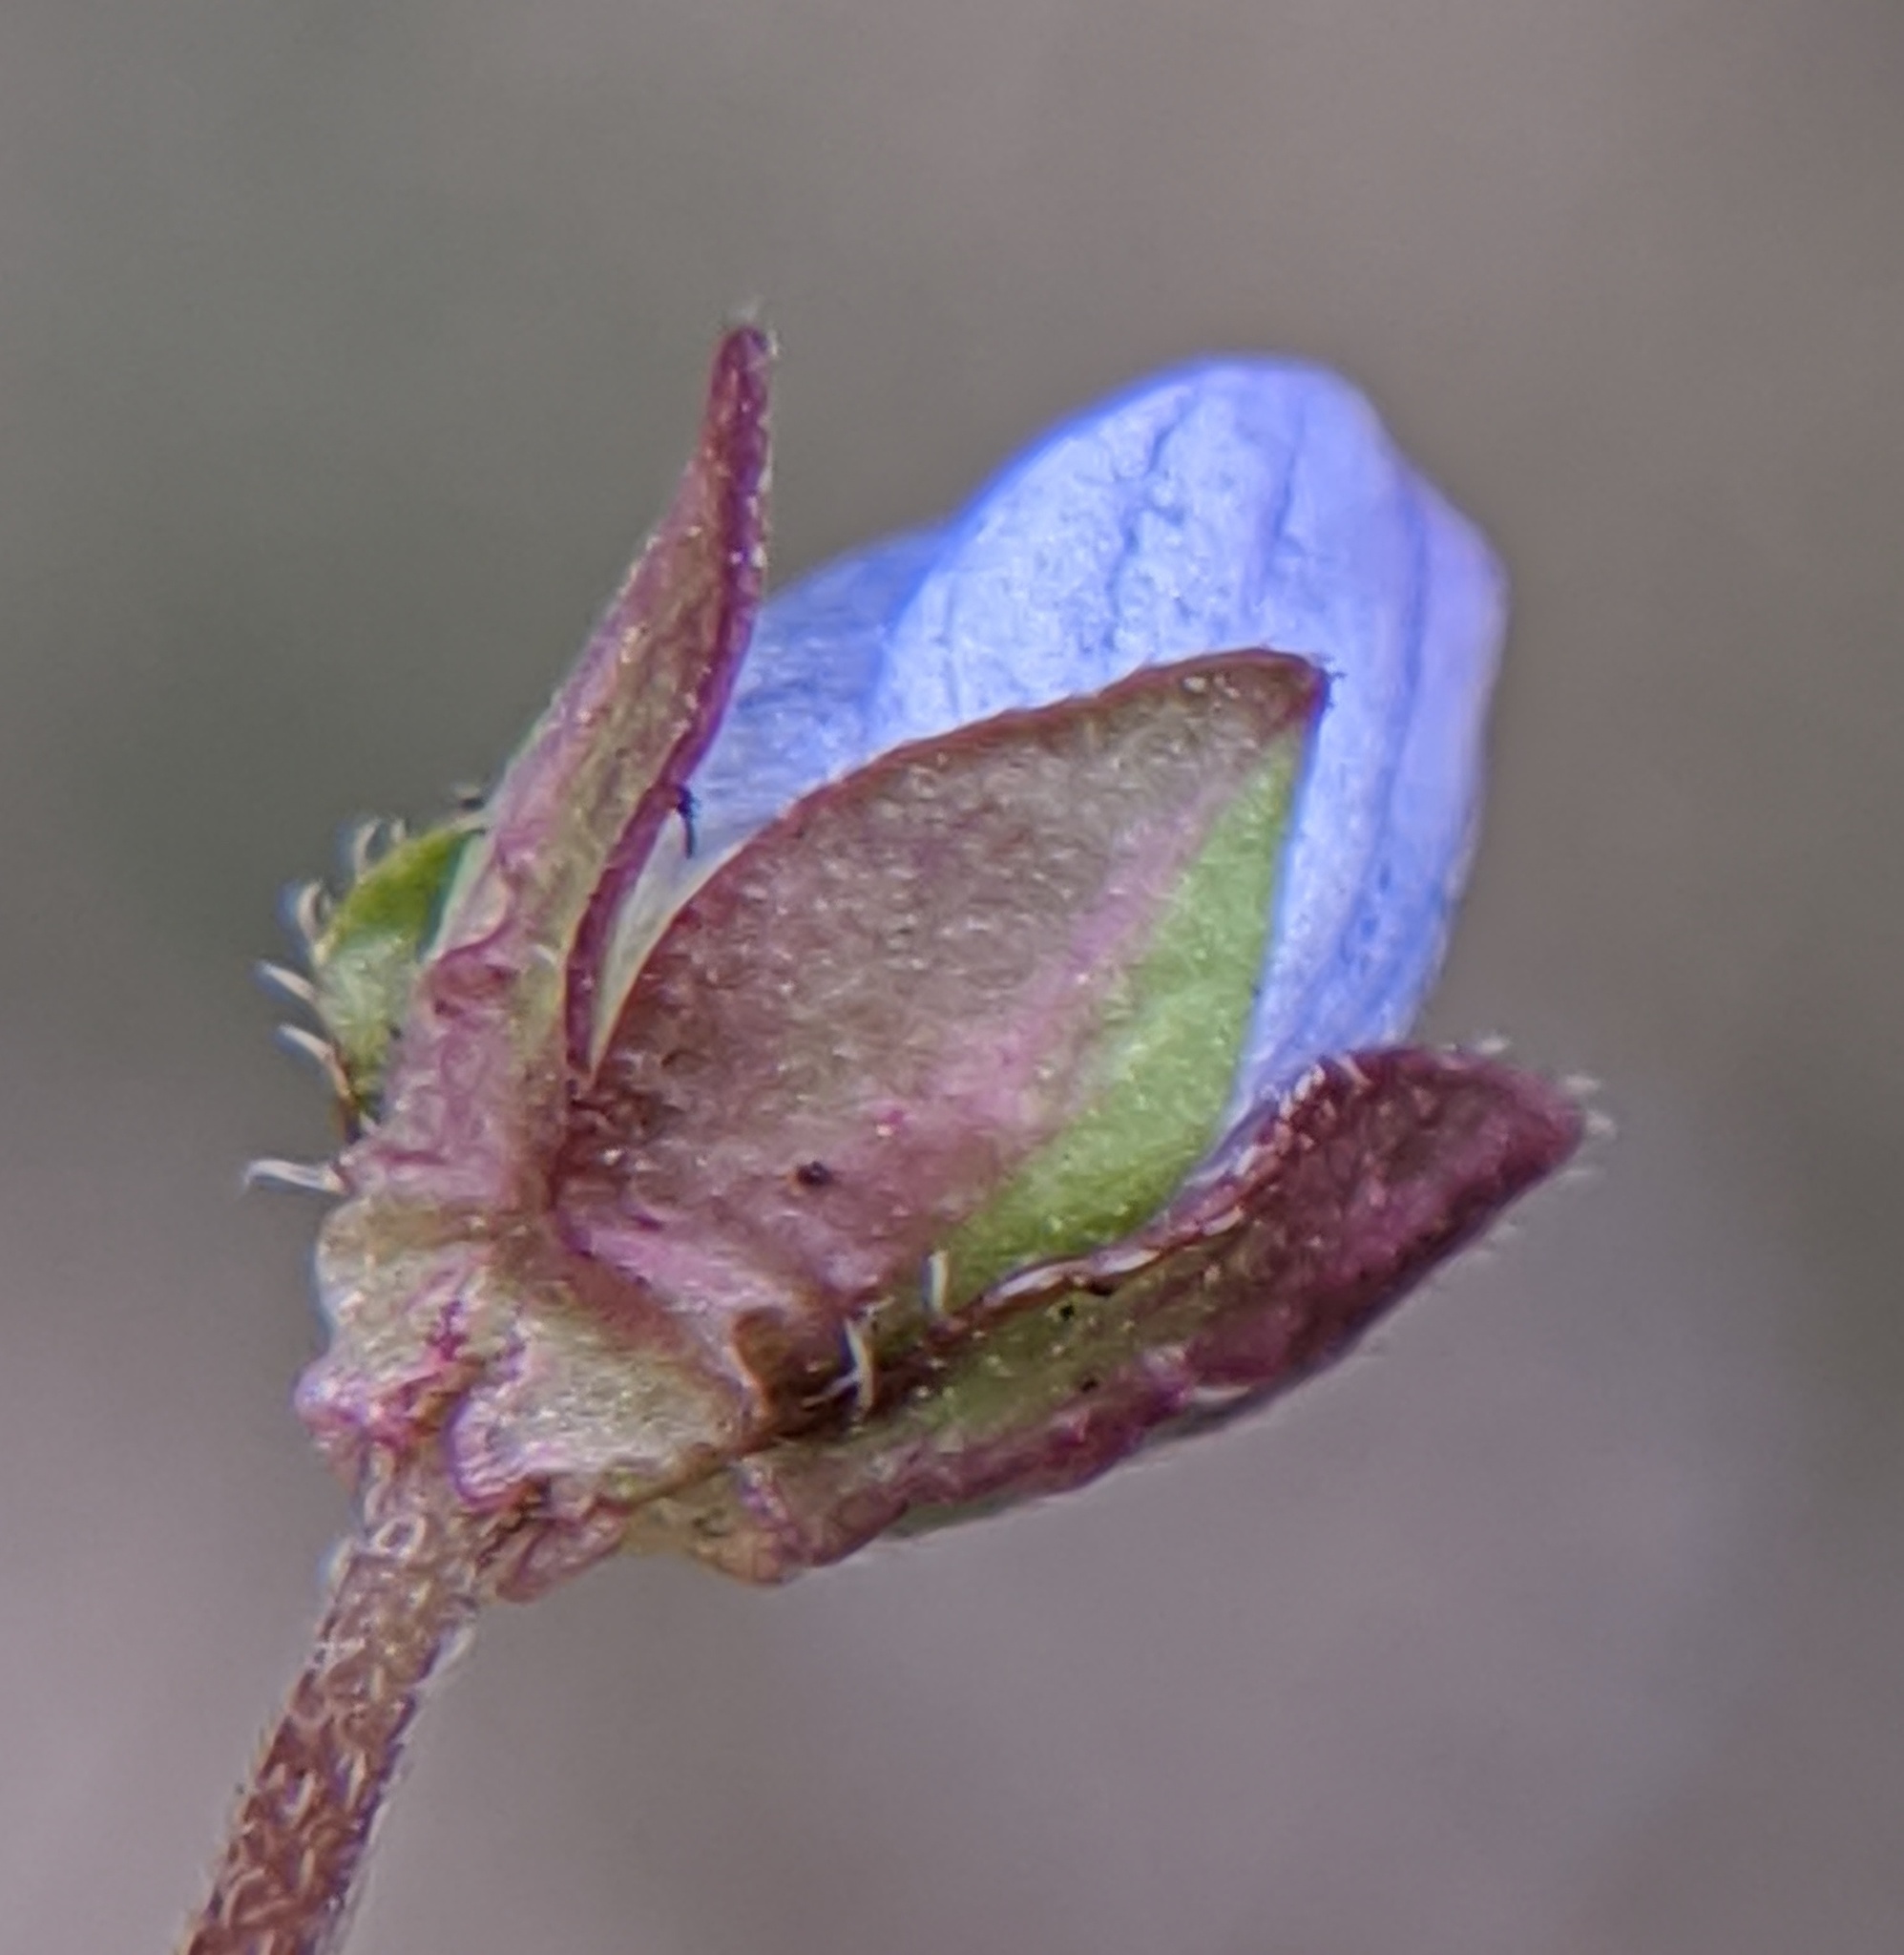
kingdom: Plantae
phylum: Tracheophyta
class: Magnoliopsida
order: Lamiales
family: Plantaginaceae
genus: Veronica
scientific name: Veronica polita
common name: Grey field-speedwell
